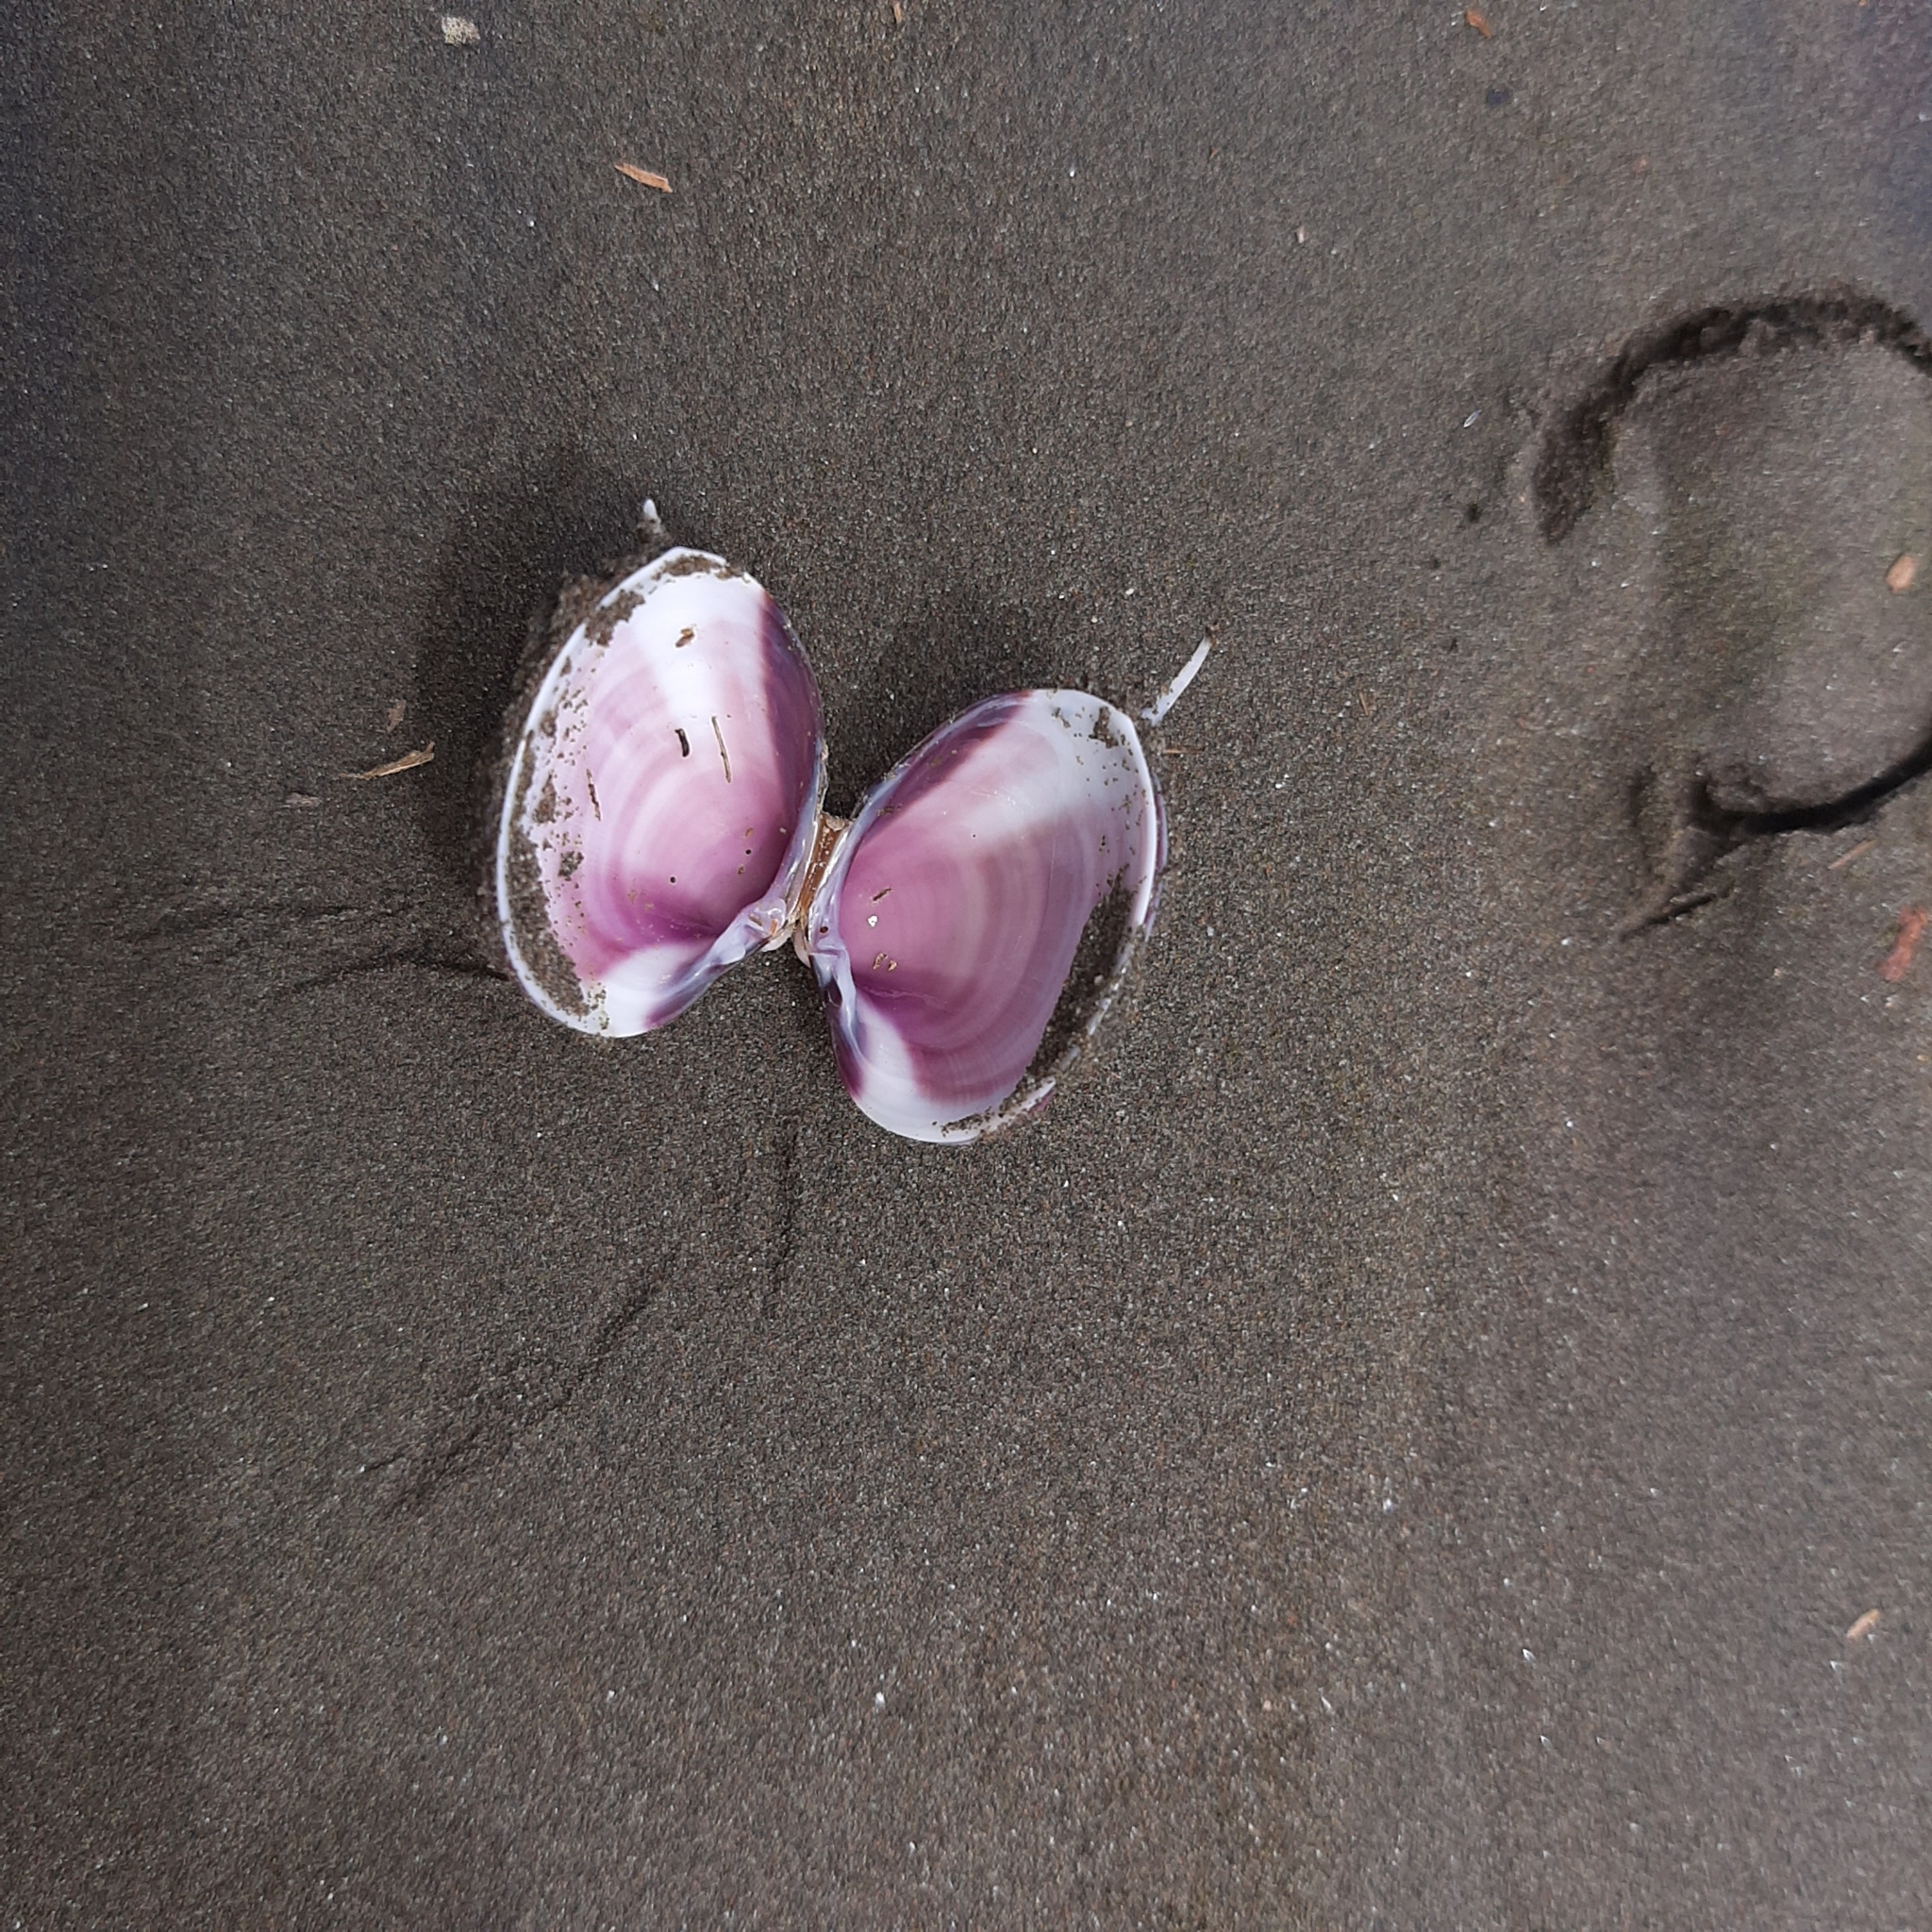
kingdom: Animalia
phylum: Mollusca
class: Bivalvia
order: Venerida
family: Veneridae
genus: Hysteroconcha
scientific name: Hysteroconcha lupanaria
